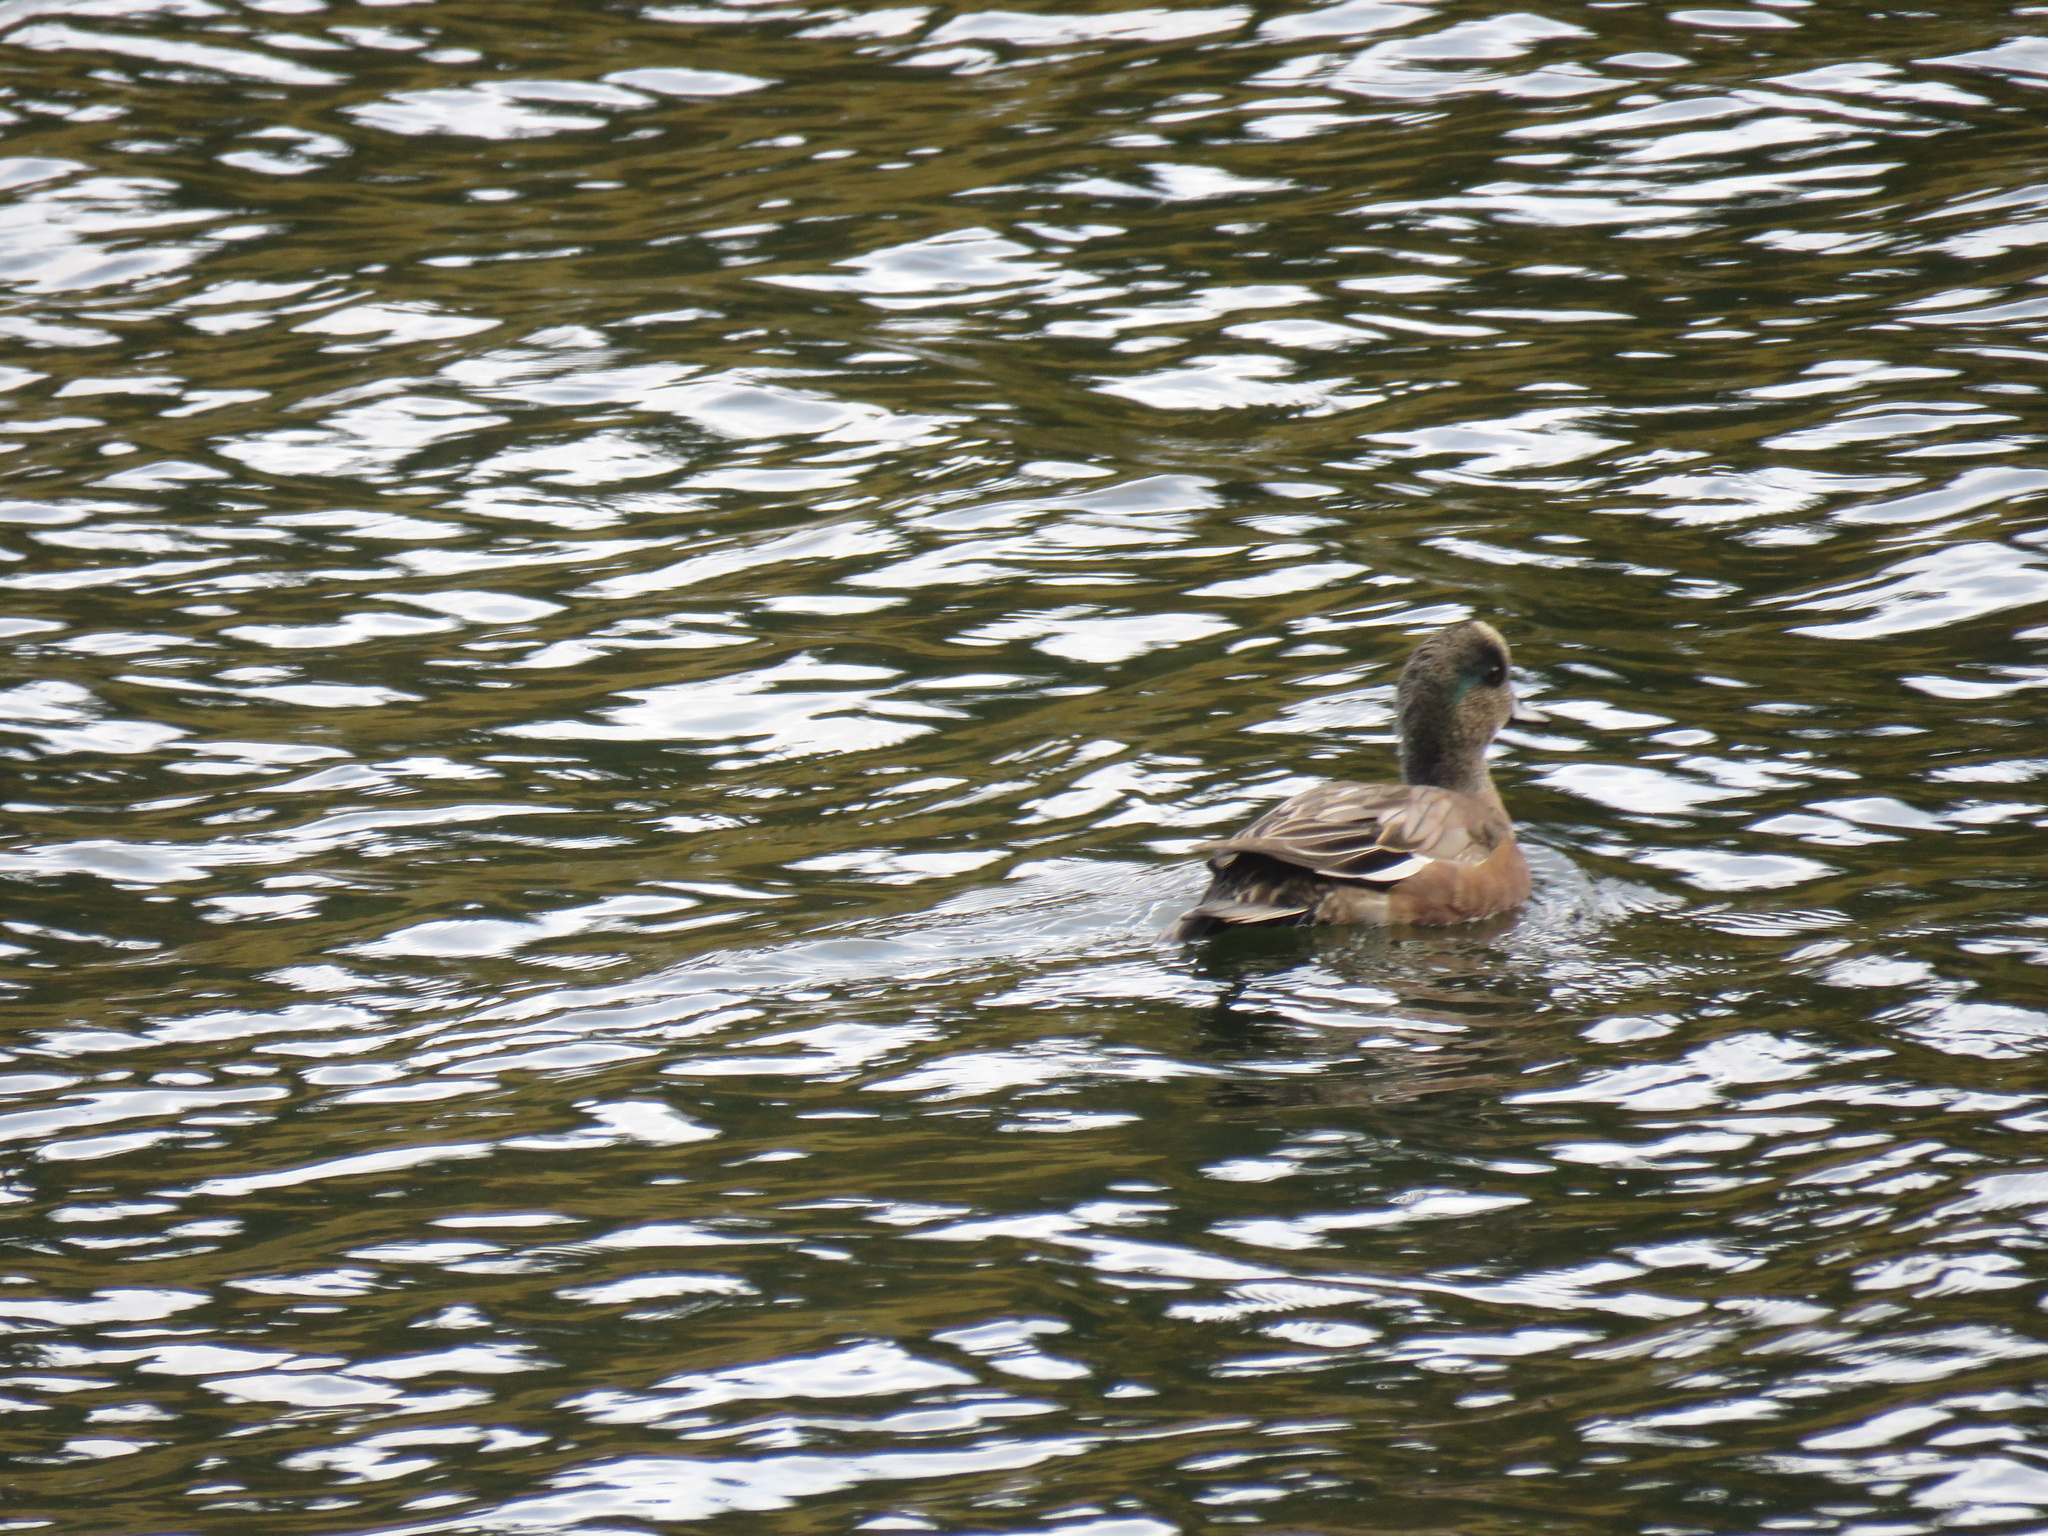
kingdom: Animalia
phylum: Chordata
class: Aves
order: Anseriformes
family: Anatidae
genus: Mareca
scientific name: Mareca americana
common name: American wigeon
